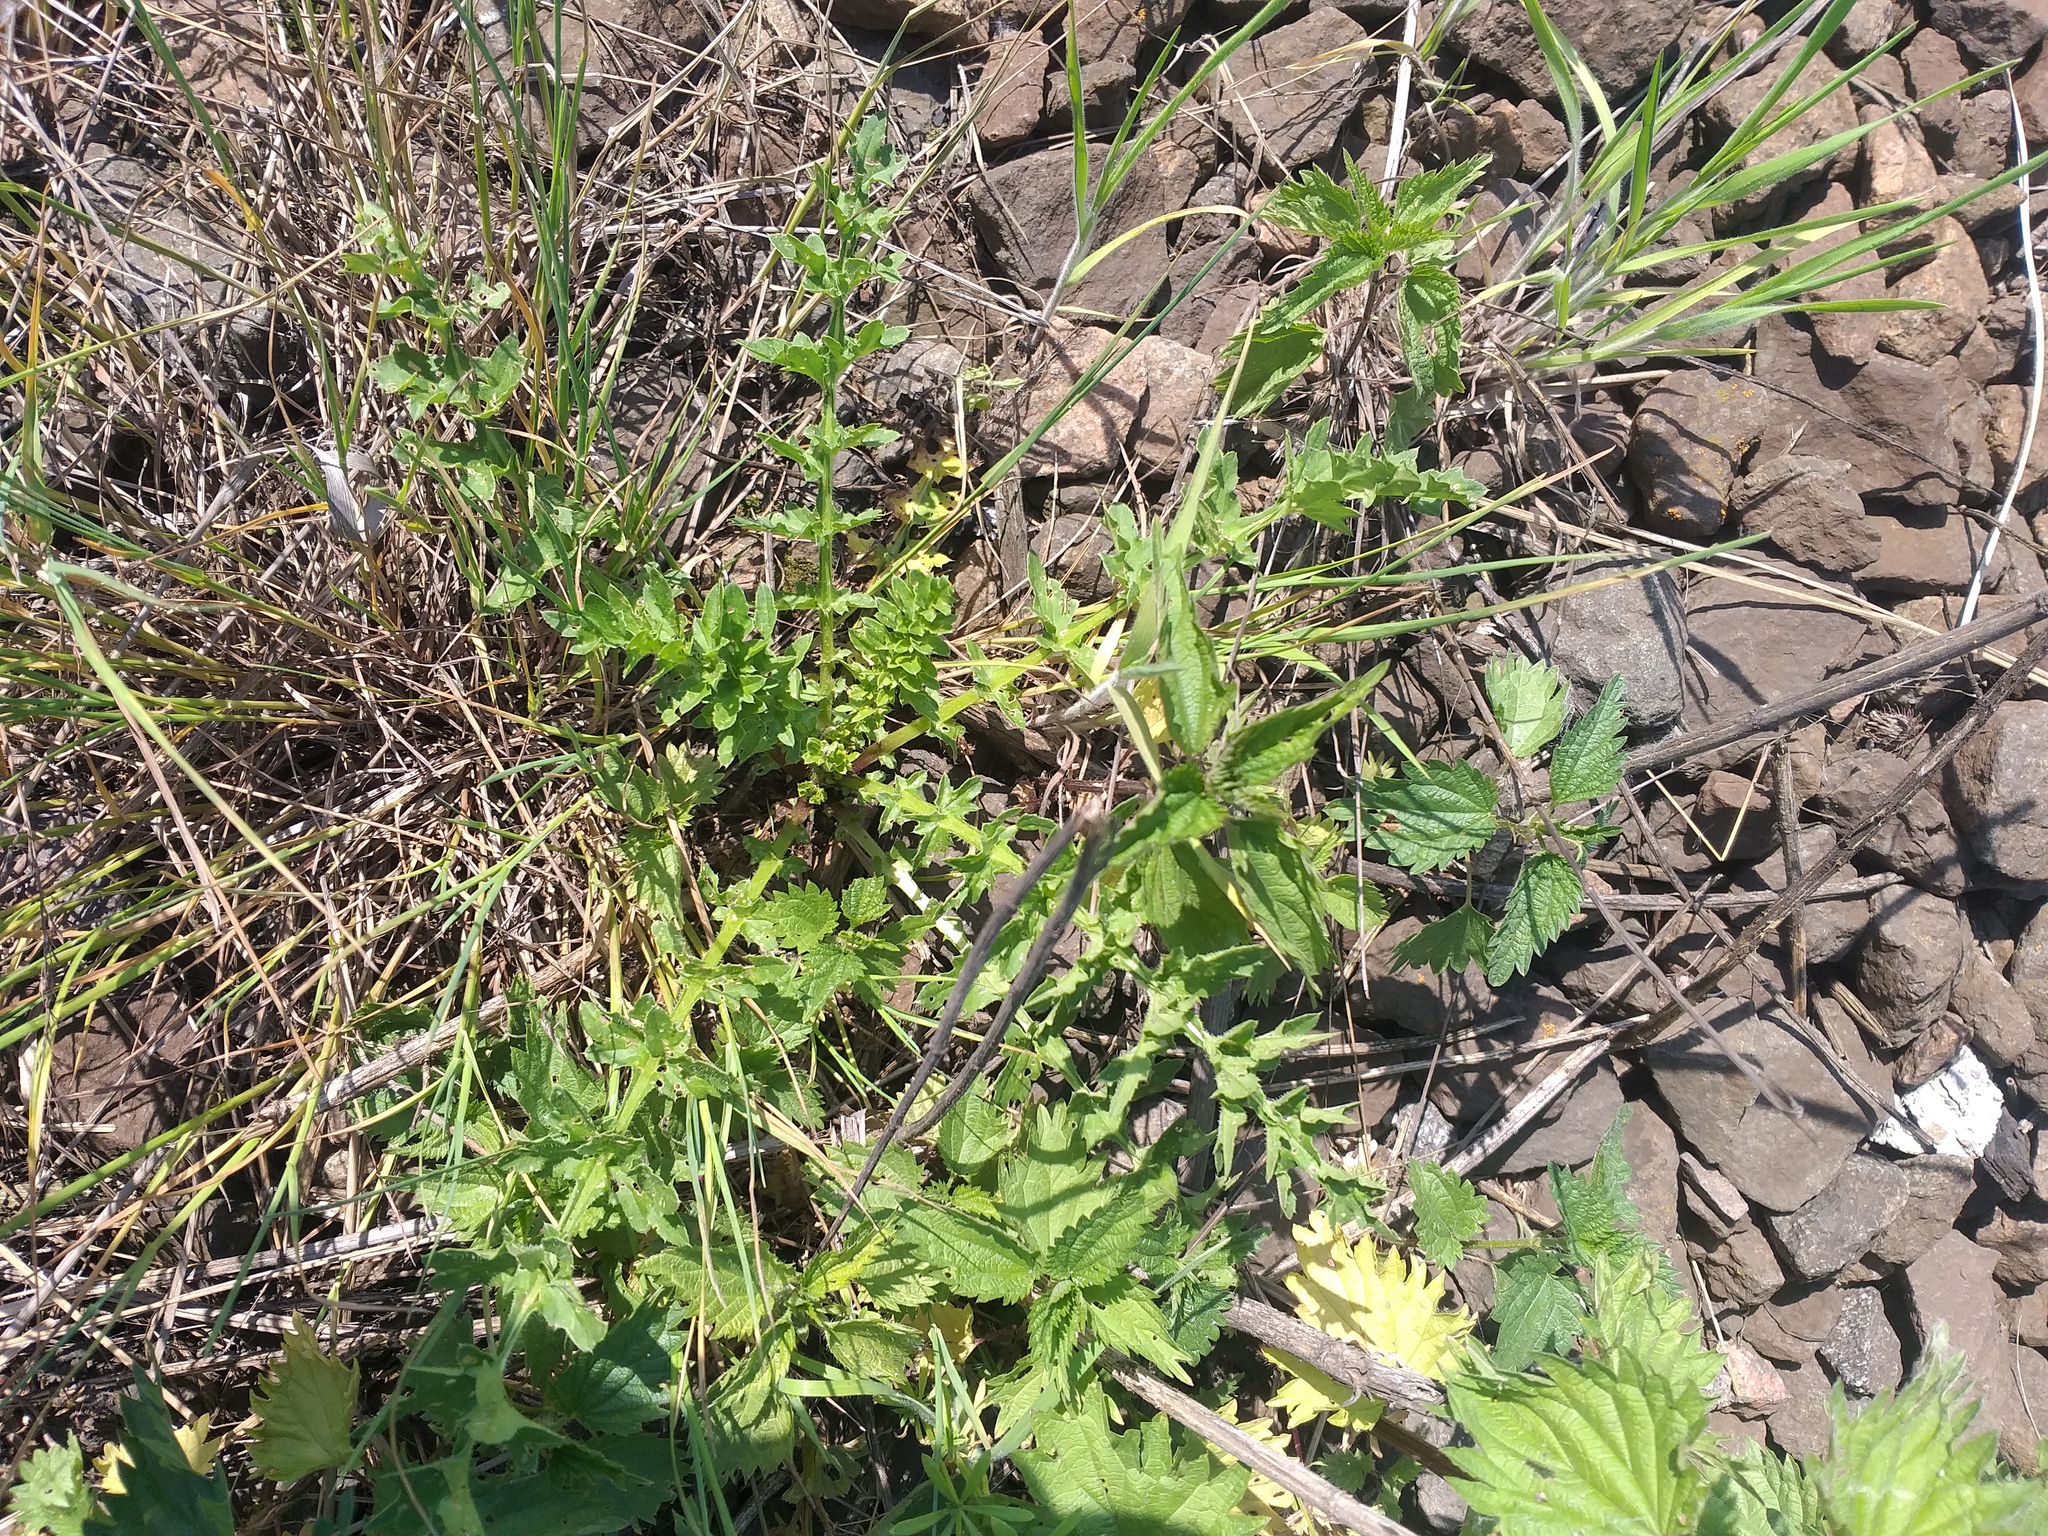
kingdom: Plantae
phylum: Tracheophyta
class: Magnoliopsida
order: Asterales
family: Asteraceae
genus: Carduus
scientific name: Carduus acanthoides
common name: Plumeless thistle
